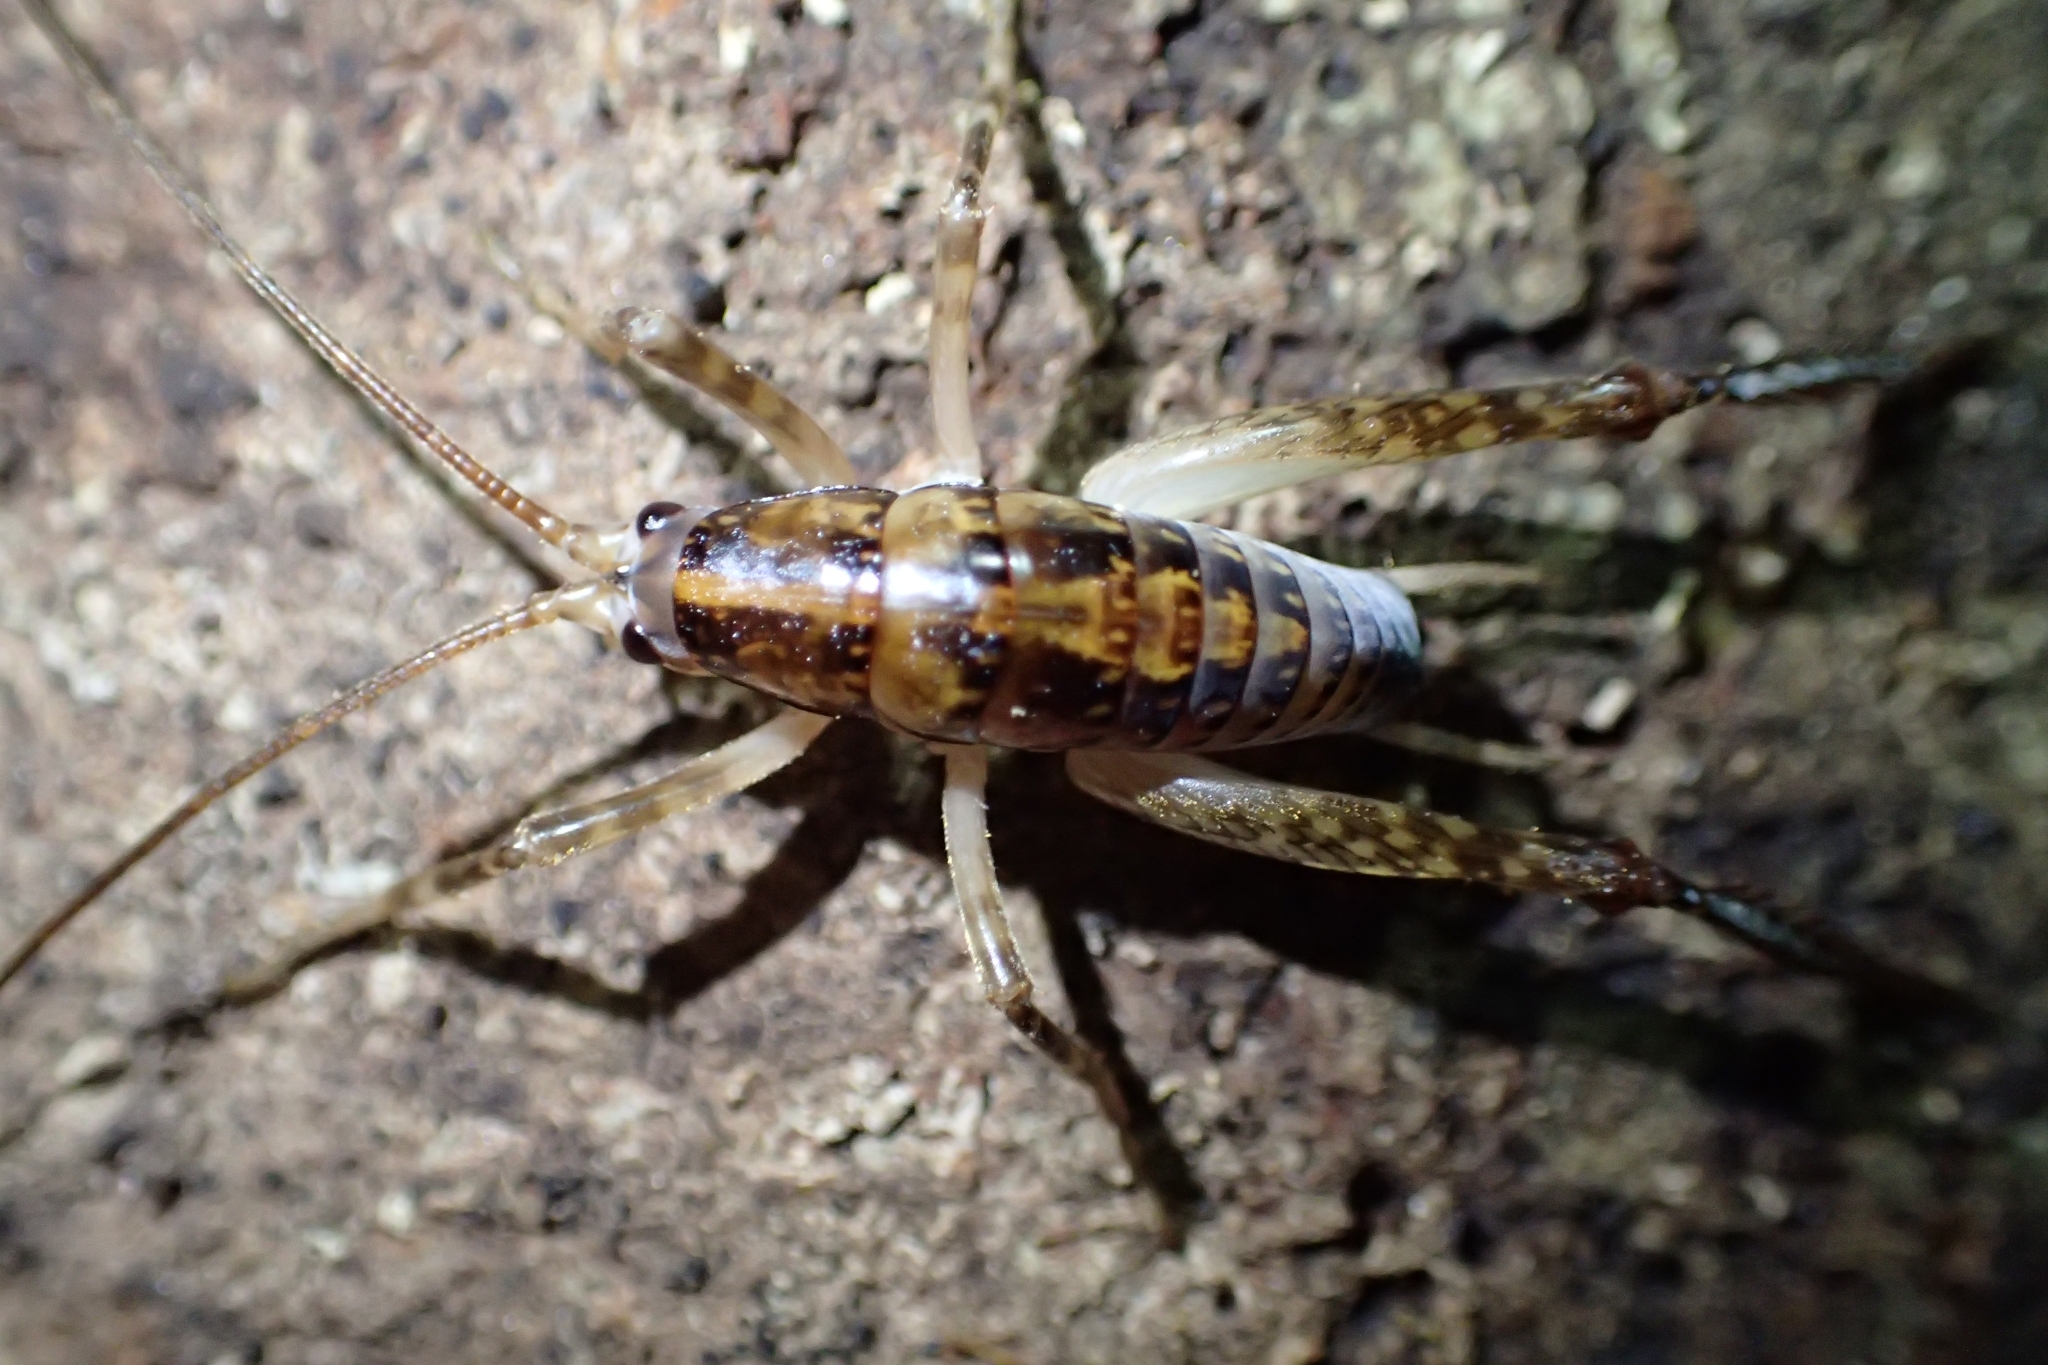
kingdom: Animalia
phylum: Arthropoda
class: Insecta
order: Orthoptera
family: Rhaphidophoridae
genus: Talitropsis
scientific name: Talitropsis sedilloti
